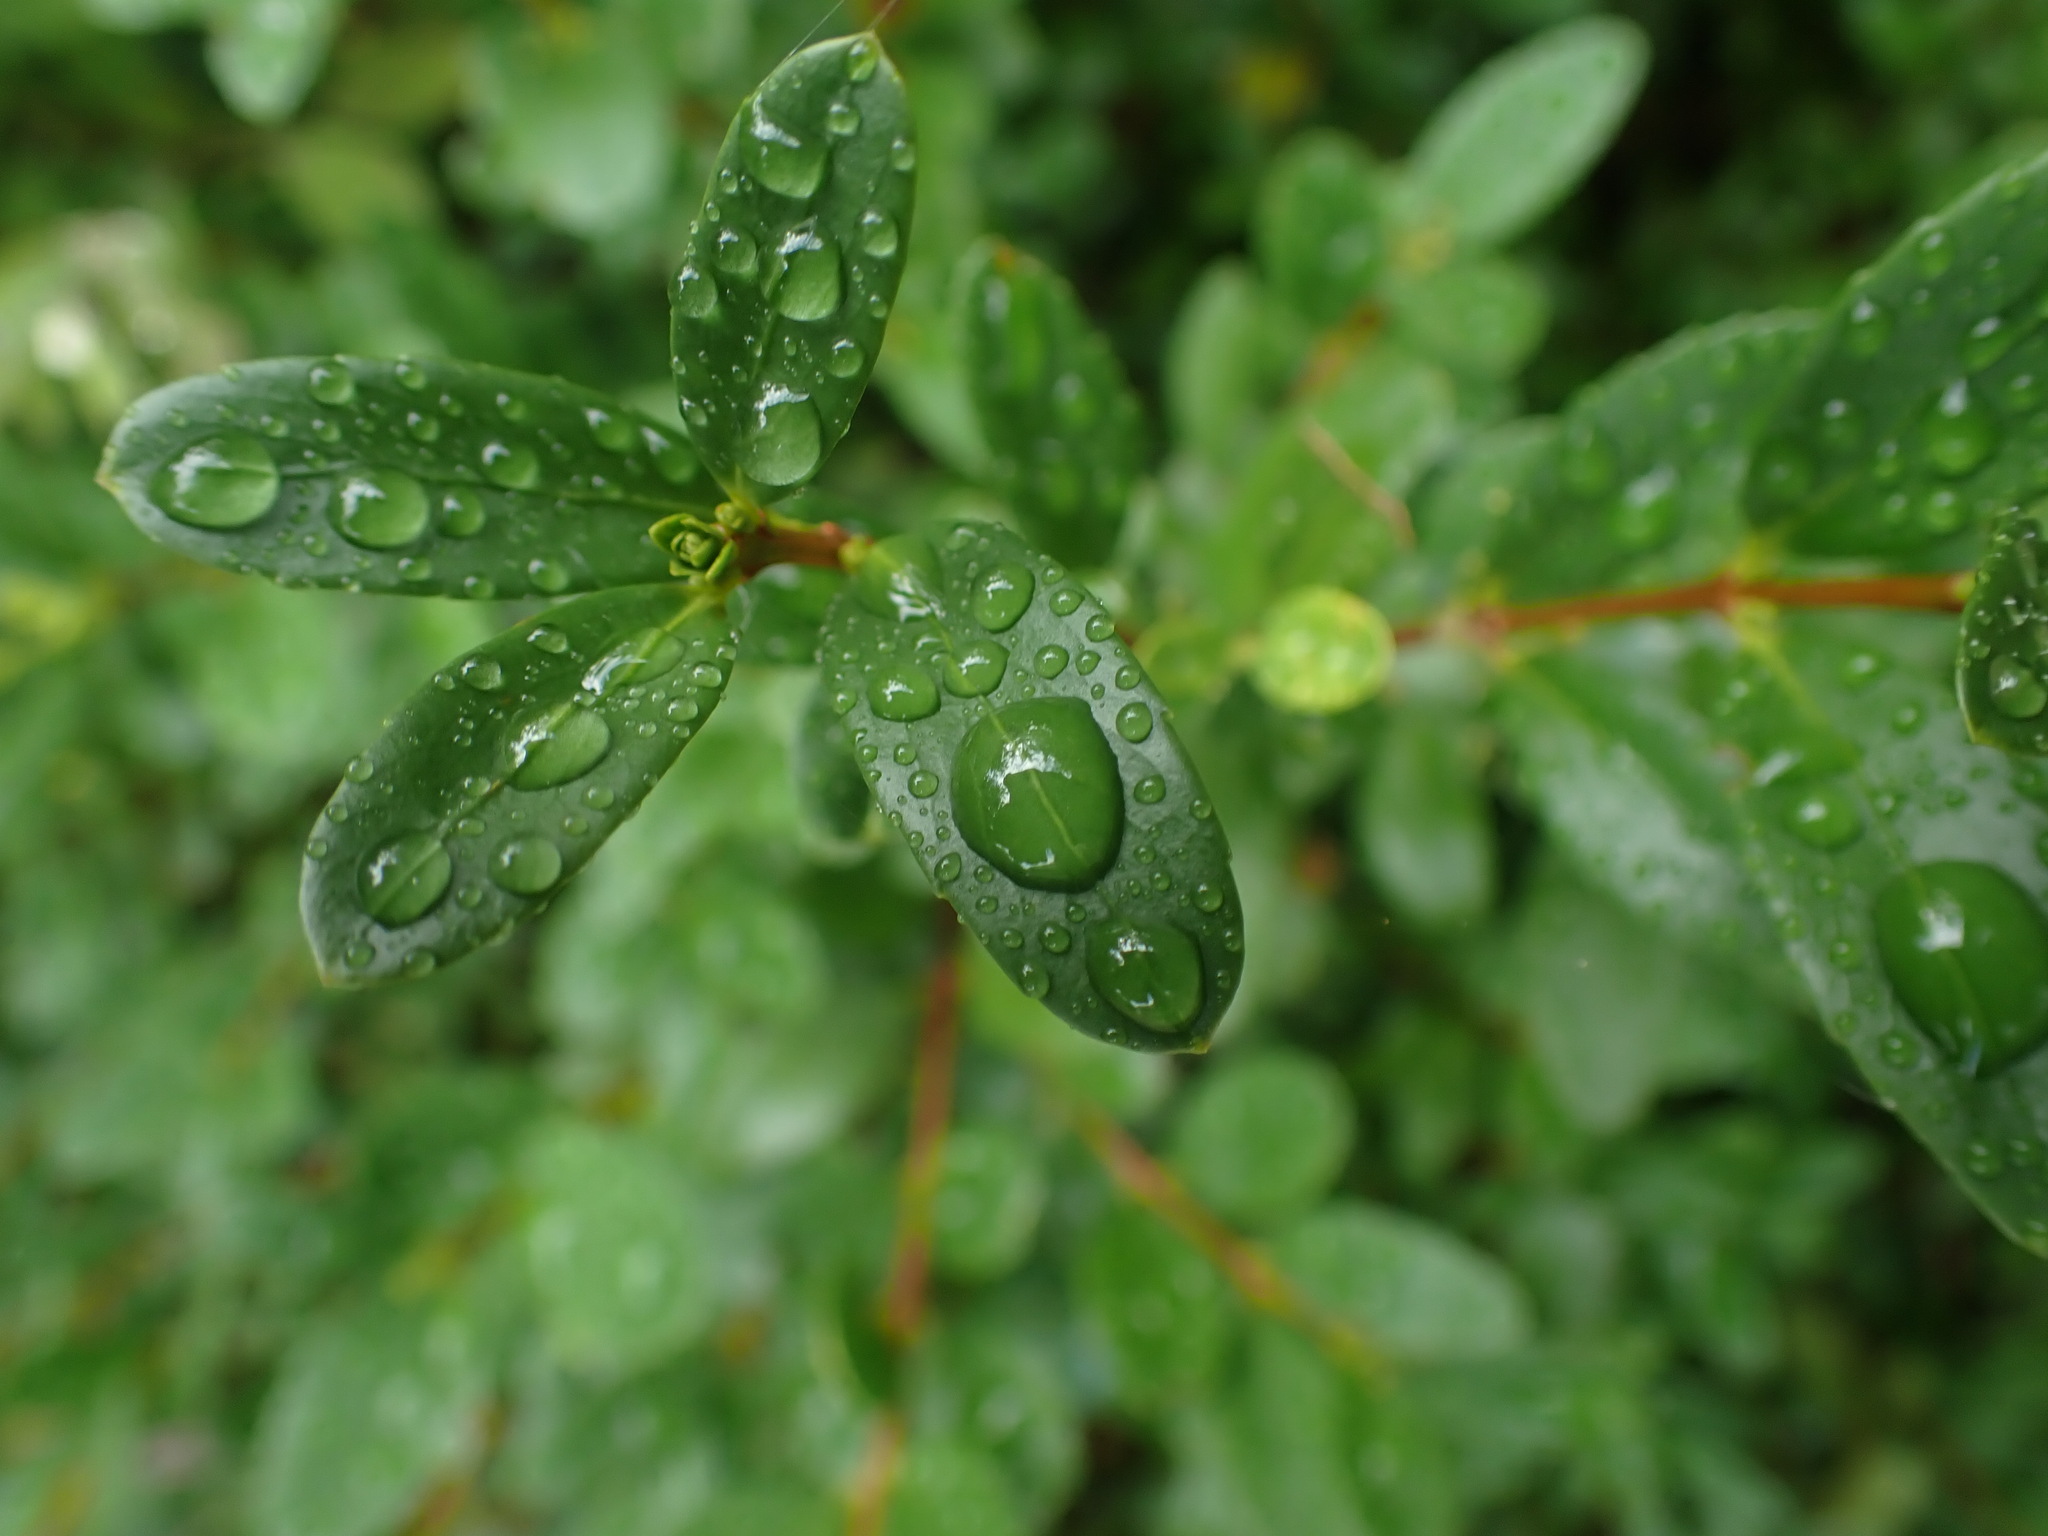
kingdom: Plantae
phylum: Tracheophyta
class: Magnoliopsida
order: Celastrales
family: Celastraceae
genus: Paxistima
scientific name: Paxistima myrsinites
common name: Mountain-lover
